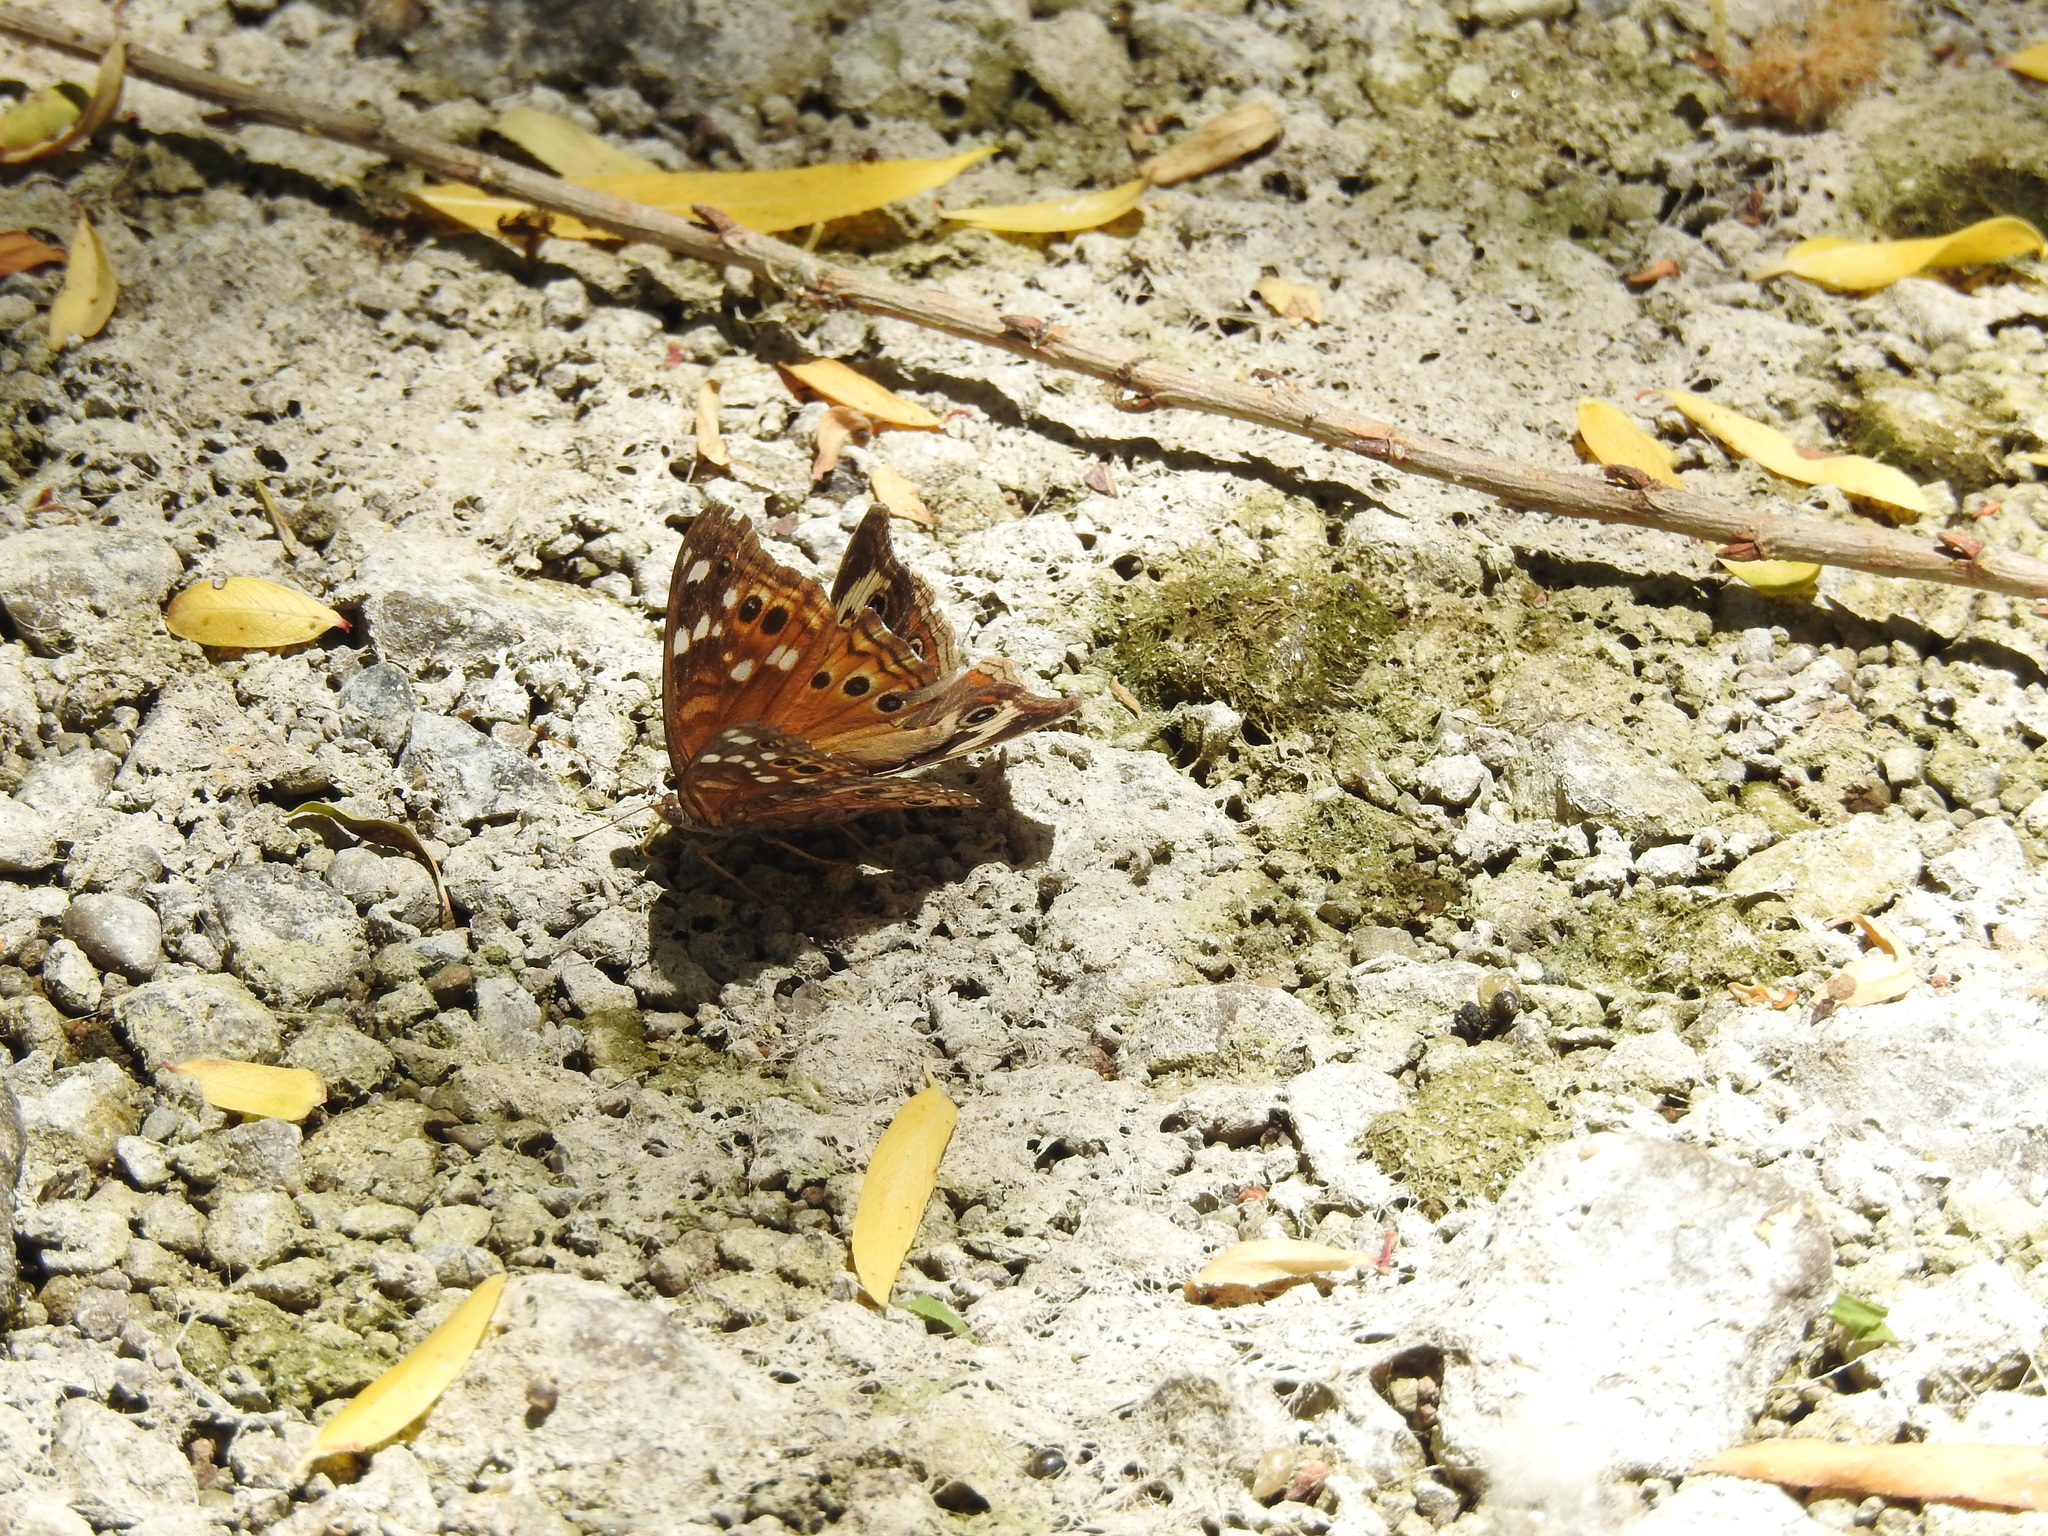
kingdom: Animalia
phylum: Arthropoda
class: Insecta
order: Lepidoptera
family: Nymphalidae
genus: Junonia
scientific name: Junonia grisea
